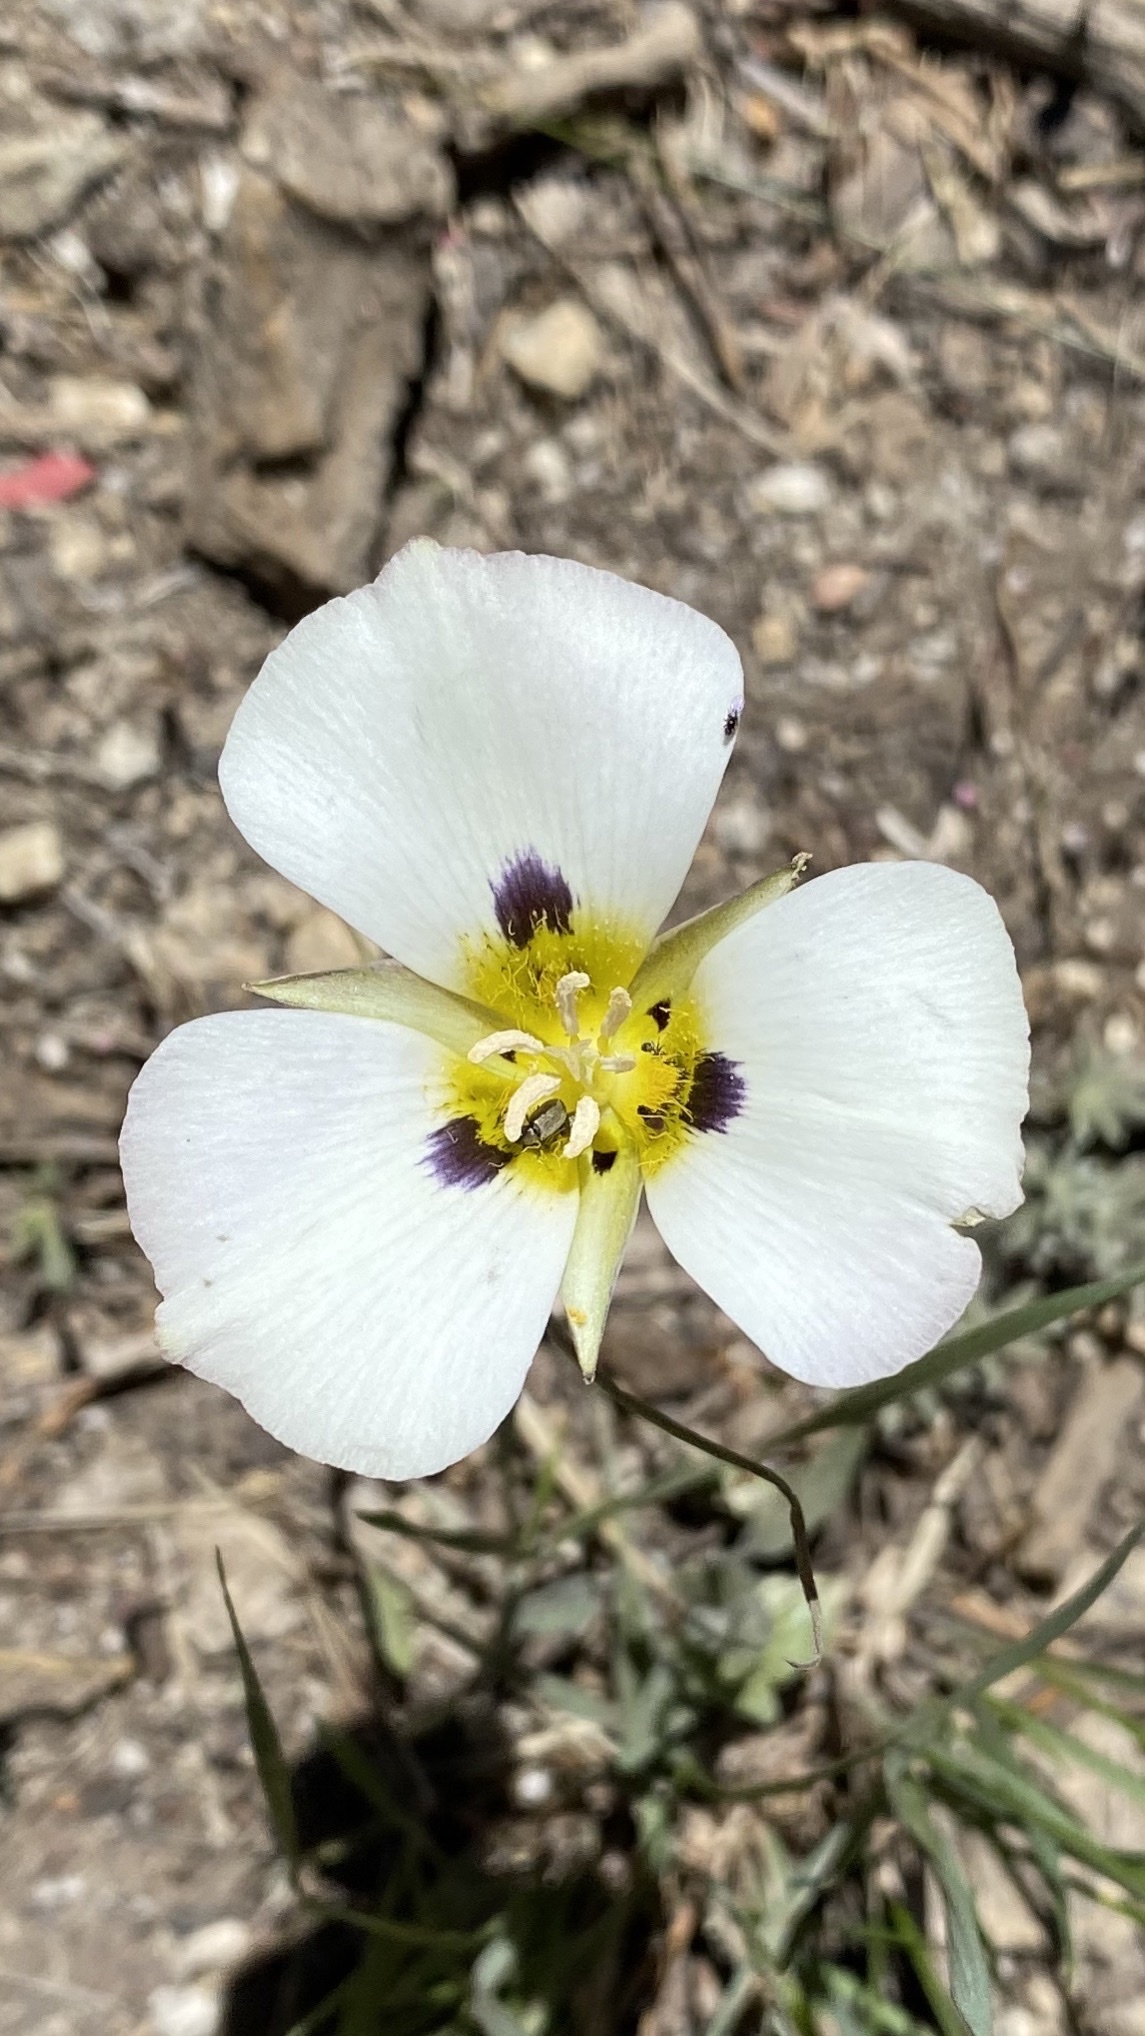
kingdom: Plantae
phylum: Tracheophyta
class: Liliopsida
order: Liliales
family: Liliaceae
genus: Calochortus
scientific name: Calochortus leichtlinii
